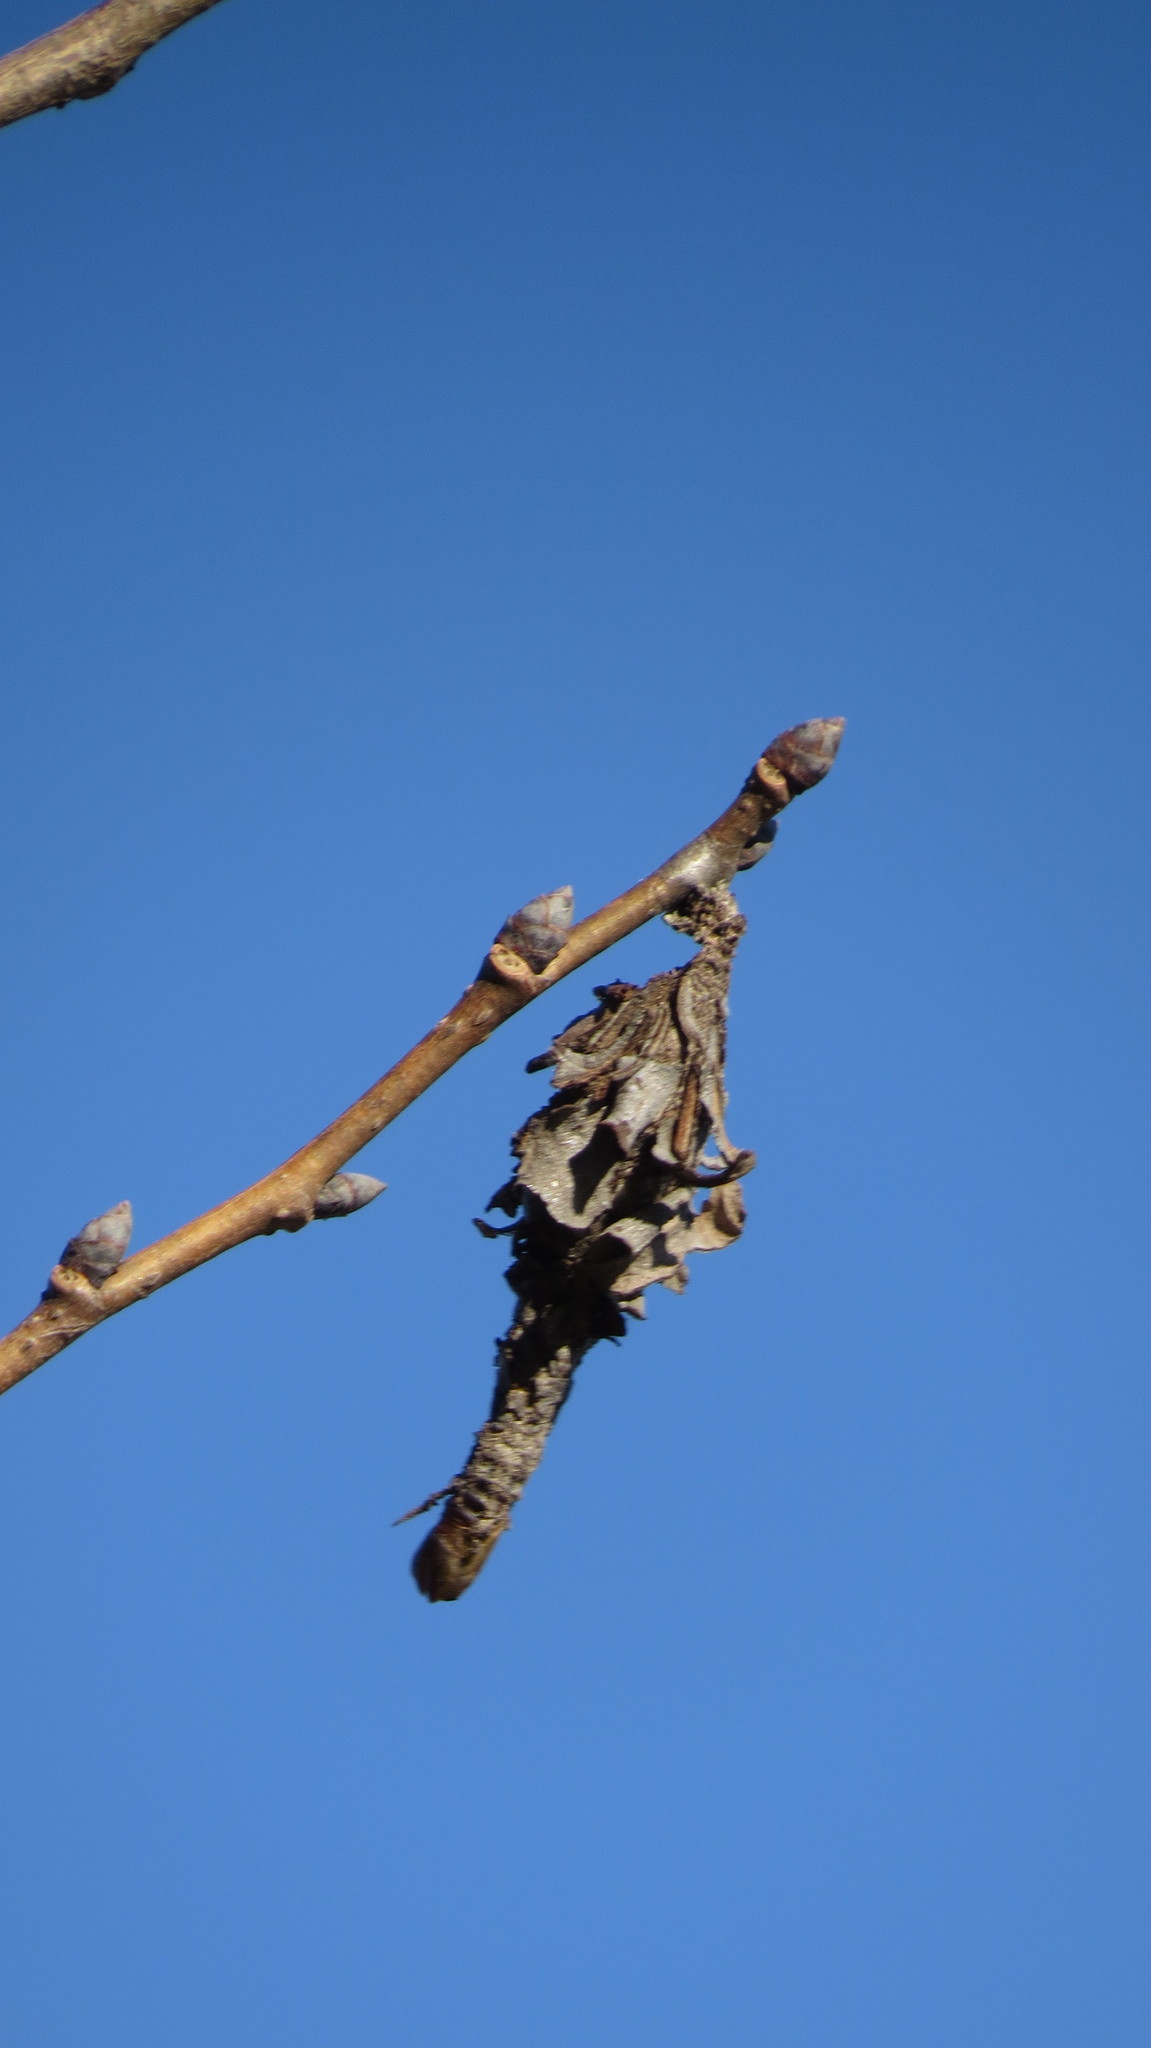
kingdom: Animalia
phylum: Arthropoda
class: Insecta
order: Lepidoptera
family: Psychidae
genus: Thyridopteryx
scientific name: Thyridopteryx ephemeraeformis
